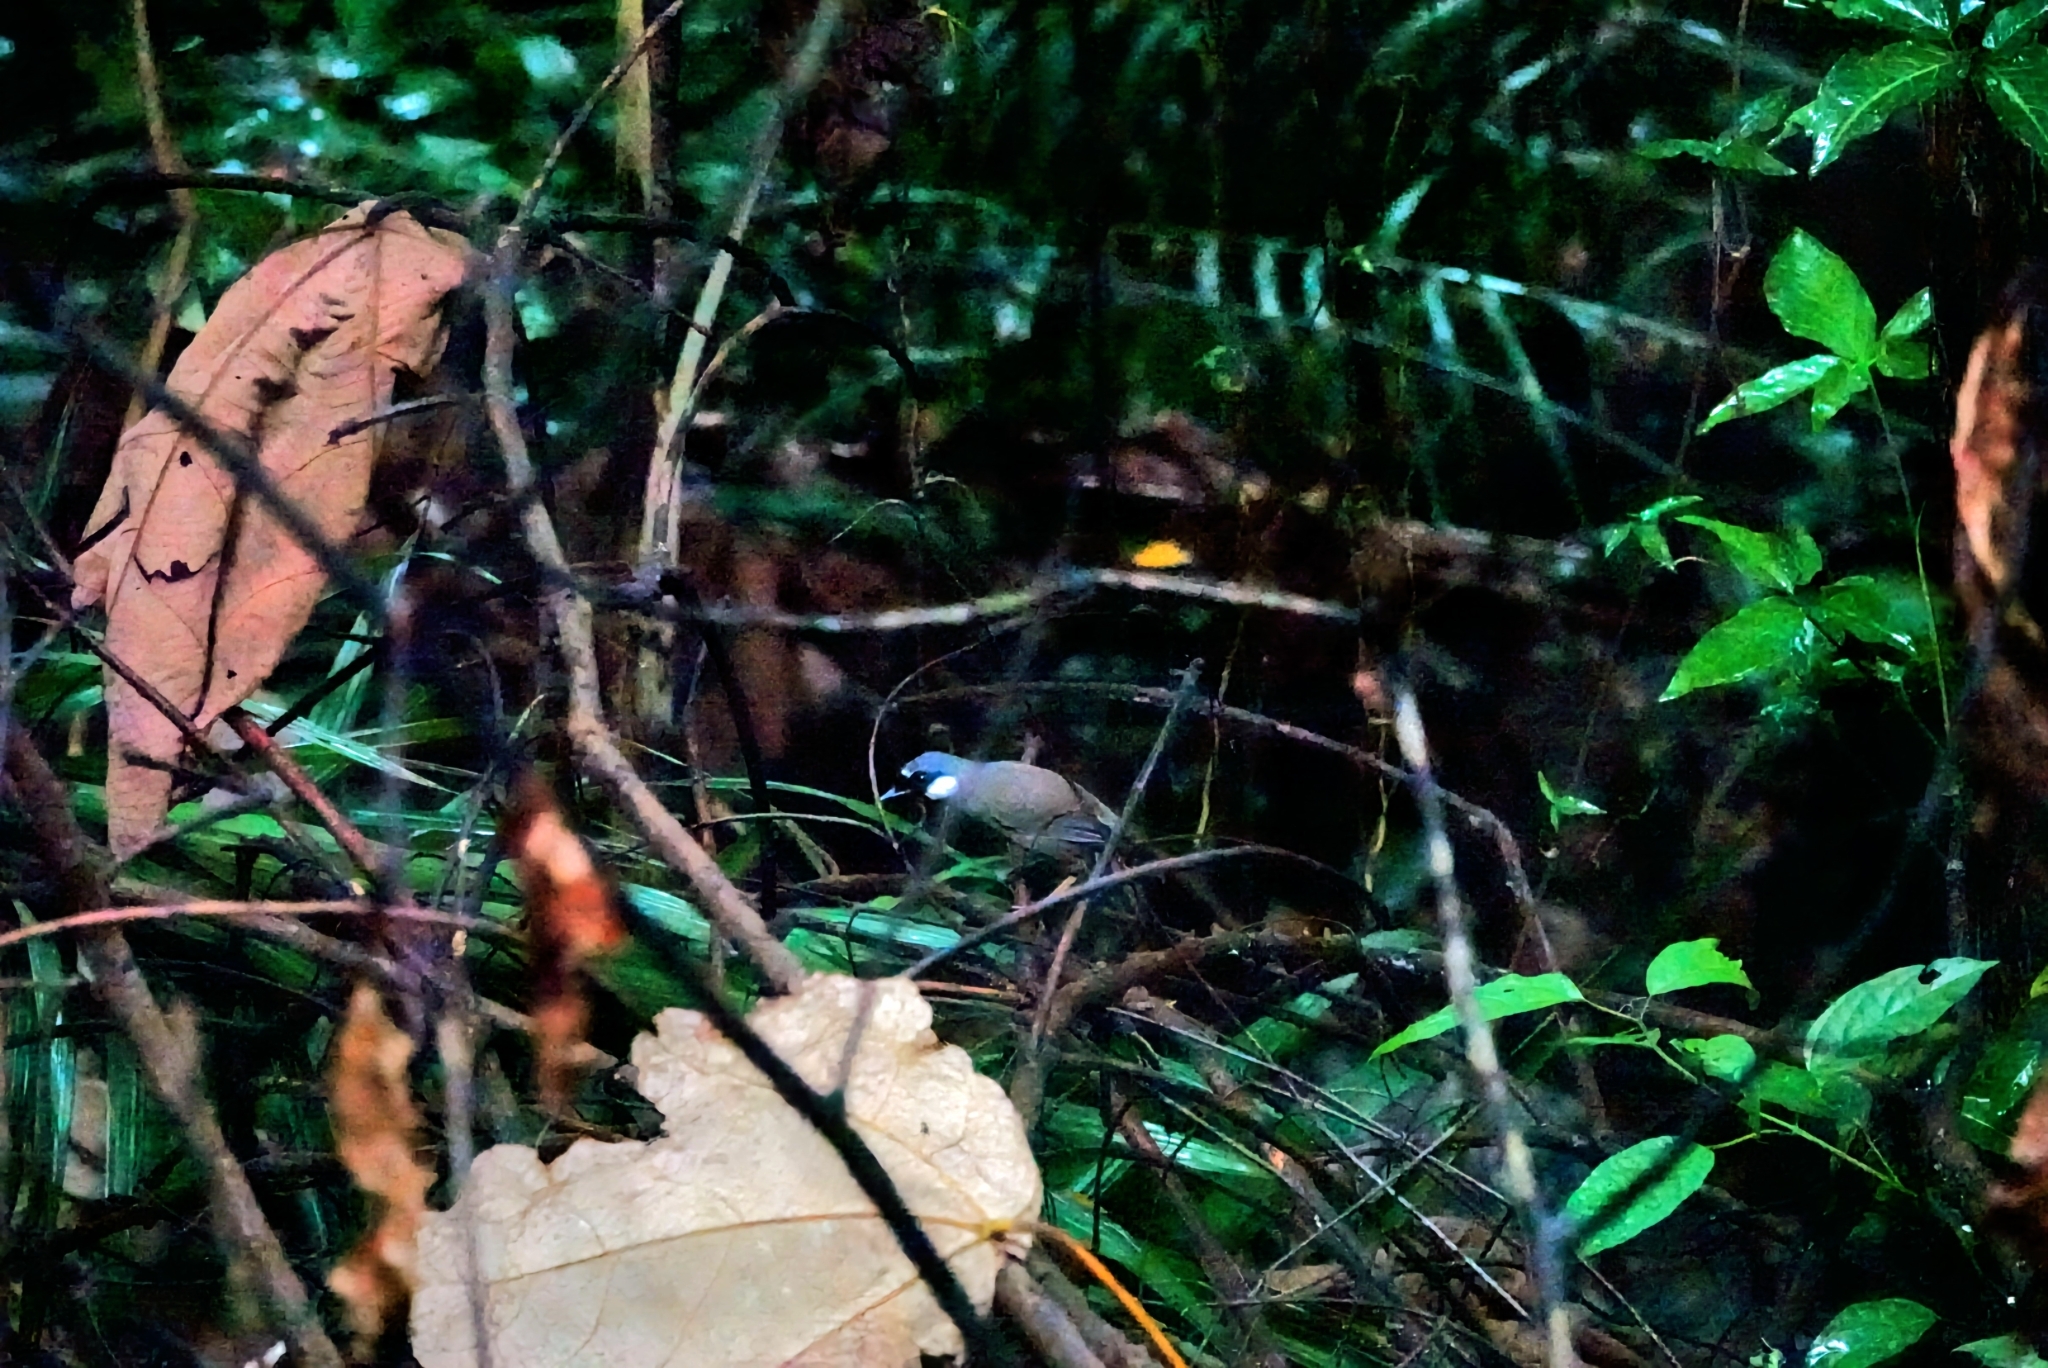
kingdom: Animalia
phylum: Chordata
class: Aves
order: Passeriformes
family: Leiothrichidae
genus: Garrulax
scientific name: Garrulax chinensis
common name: Black-throated laughingthrush
